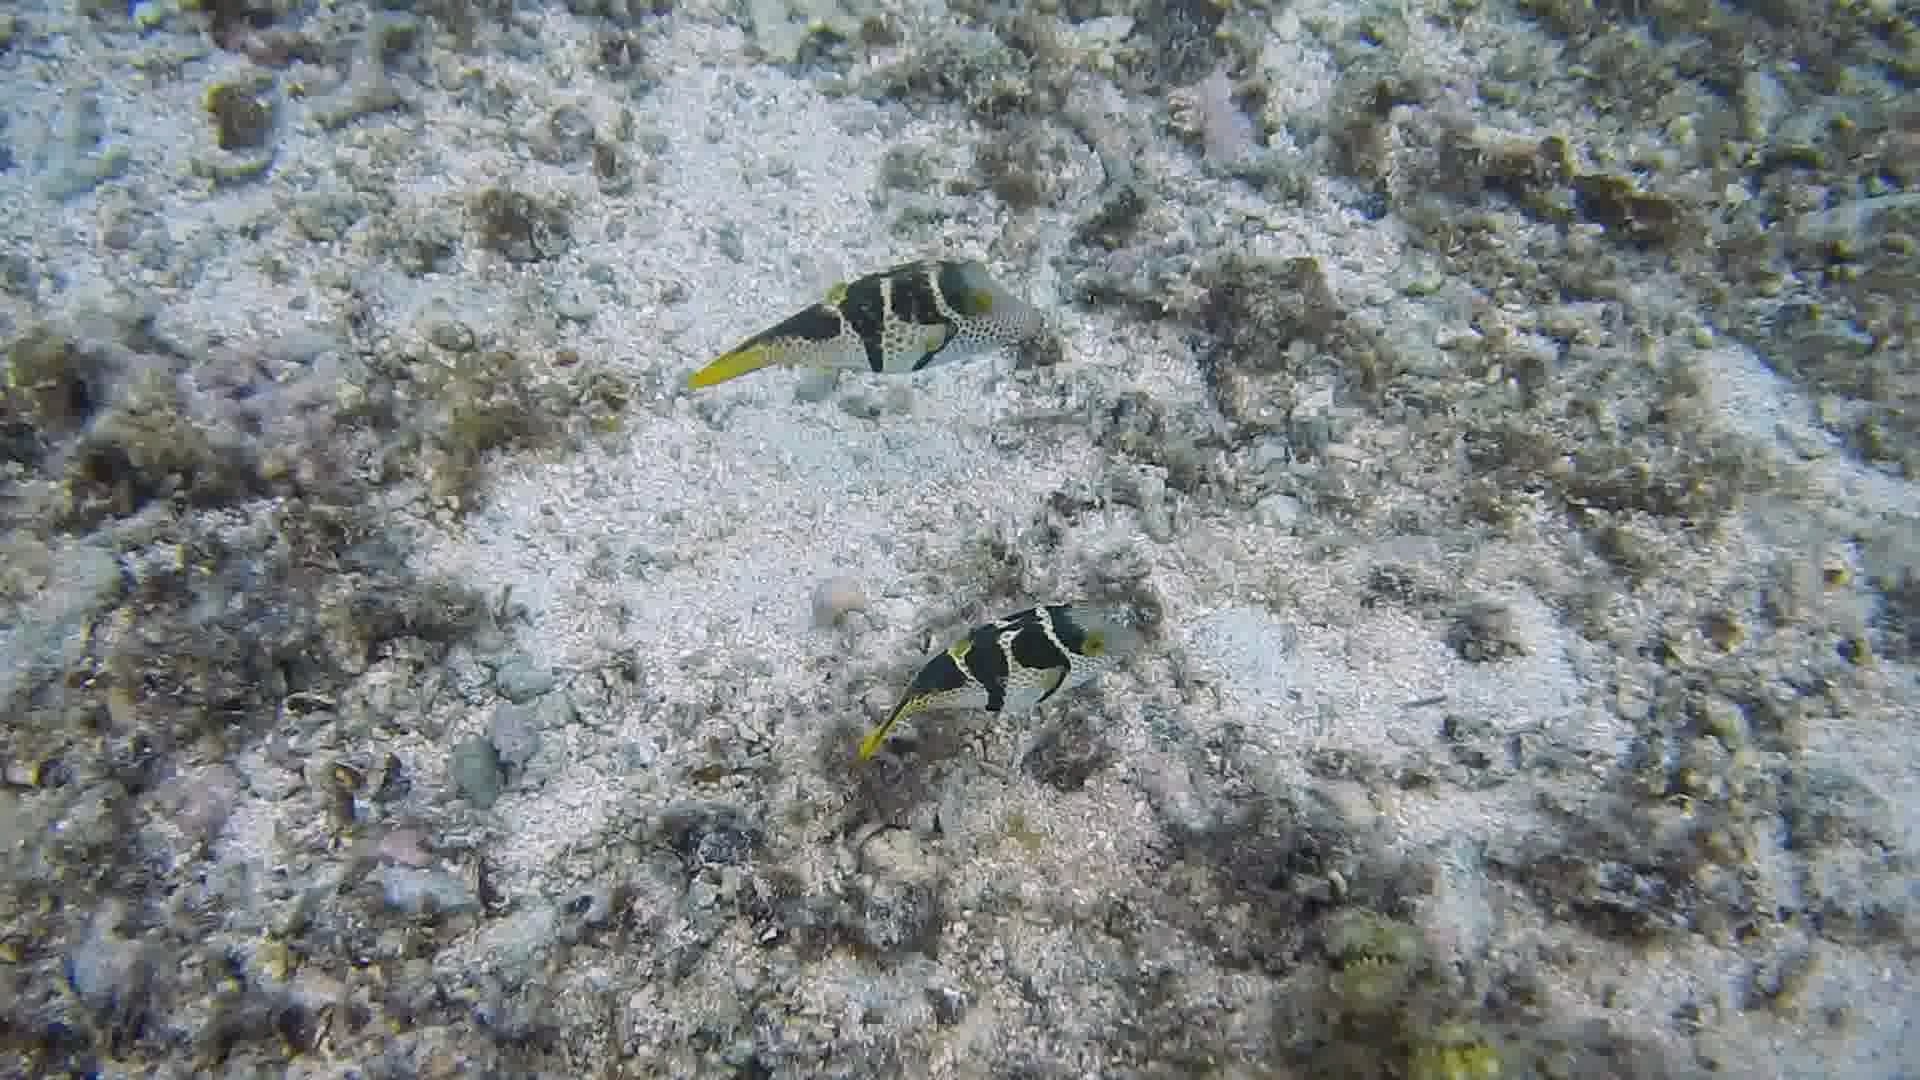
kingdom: Animalia
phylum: Chordata
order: Tetraodontiformes
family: Tetraodontidae
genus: Canthigaster
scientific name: Canthigaster valentini
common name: Banded toby
